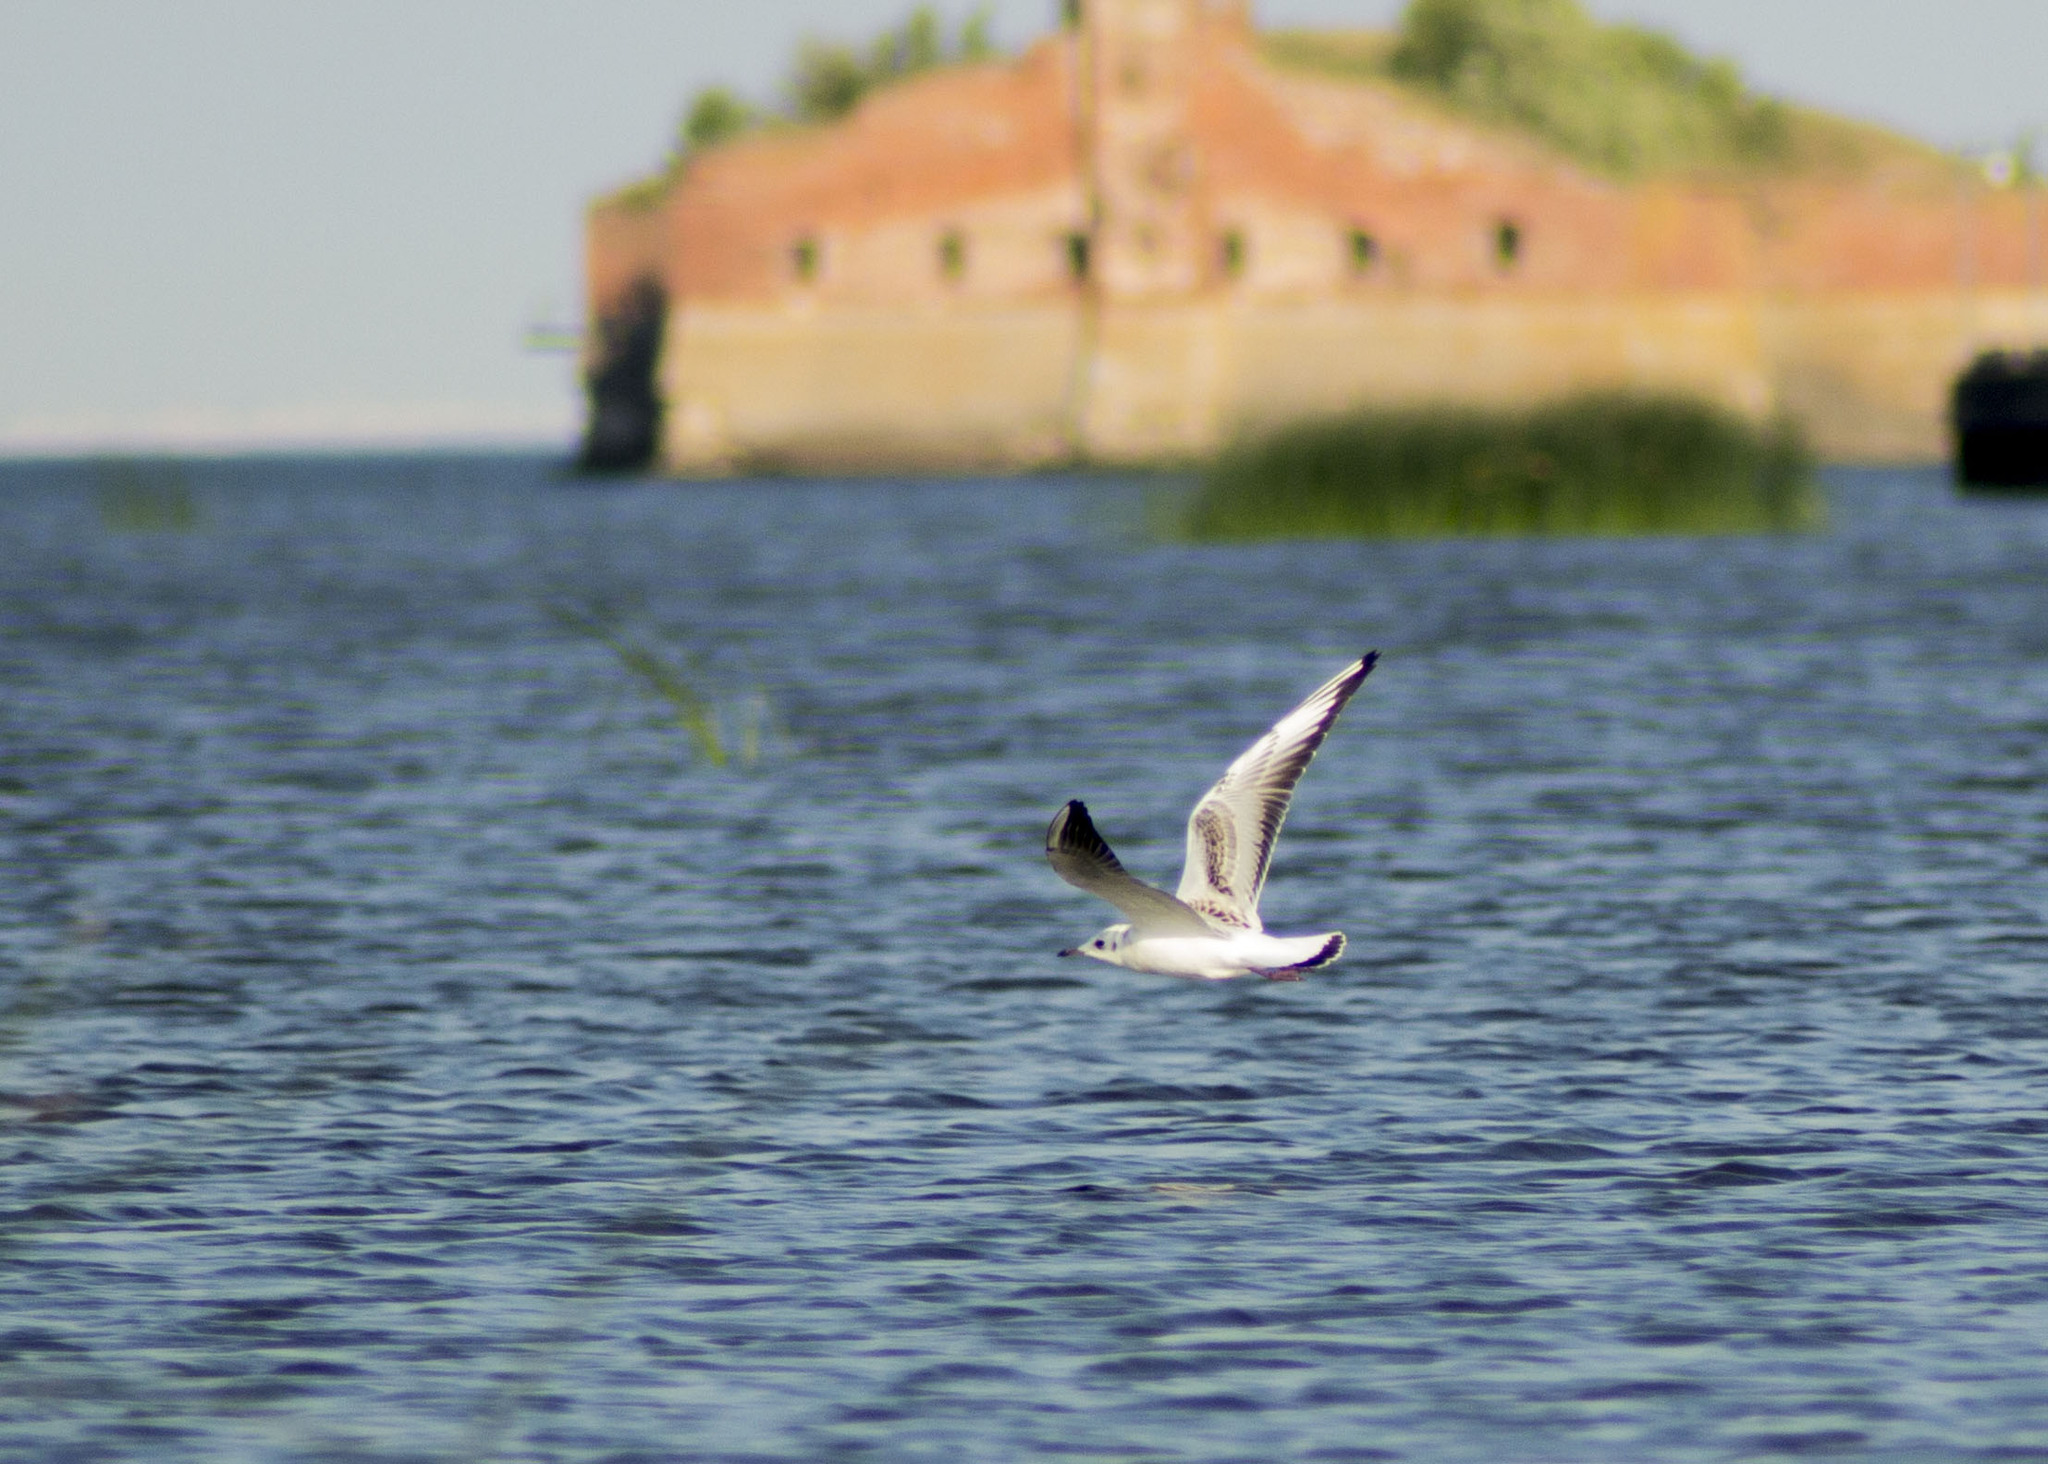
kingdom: Animalia
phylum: Chordata
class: Aves
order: Charadriiformes
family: Laridae
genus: Chroicocephalus
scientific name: Chroicocephalus ridibundus
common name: Black-headed gull
